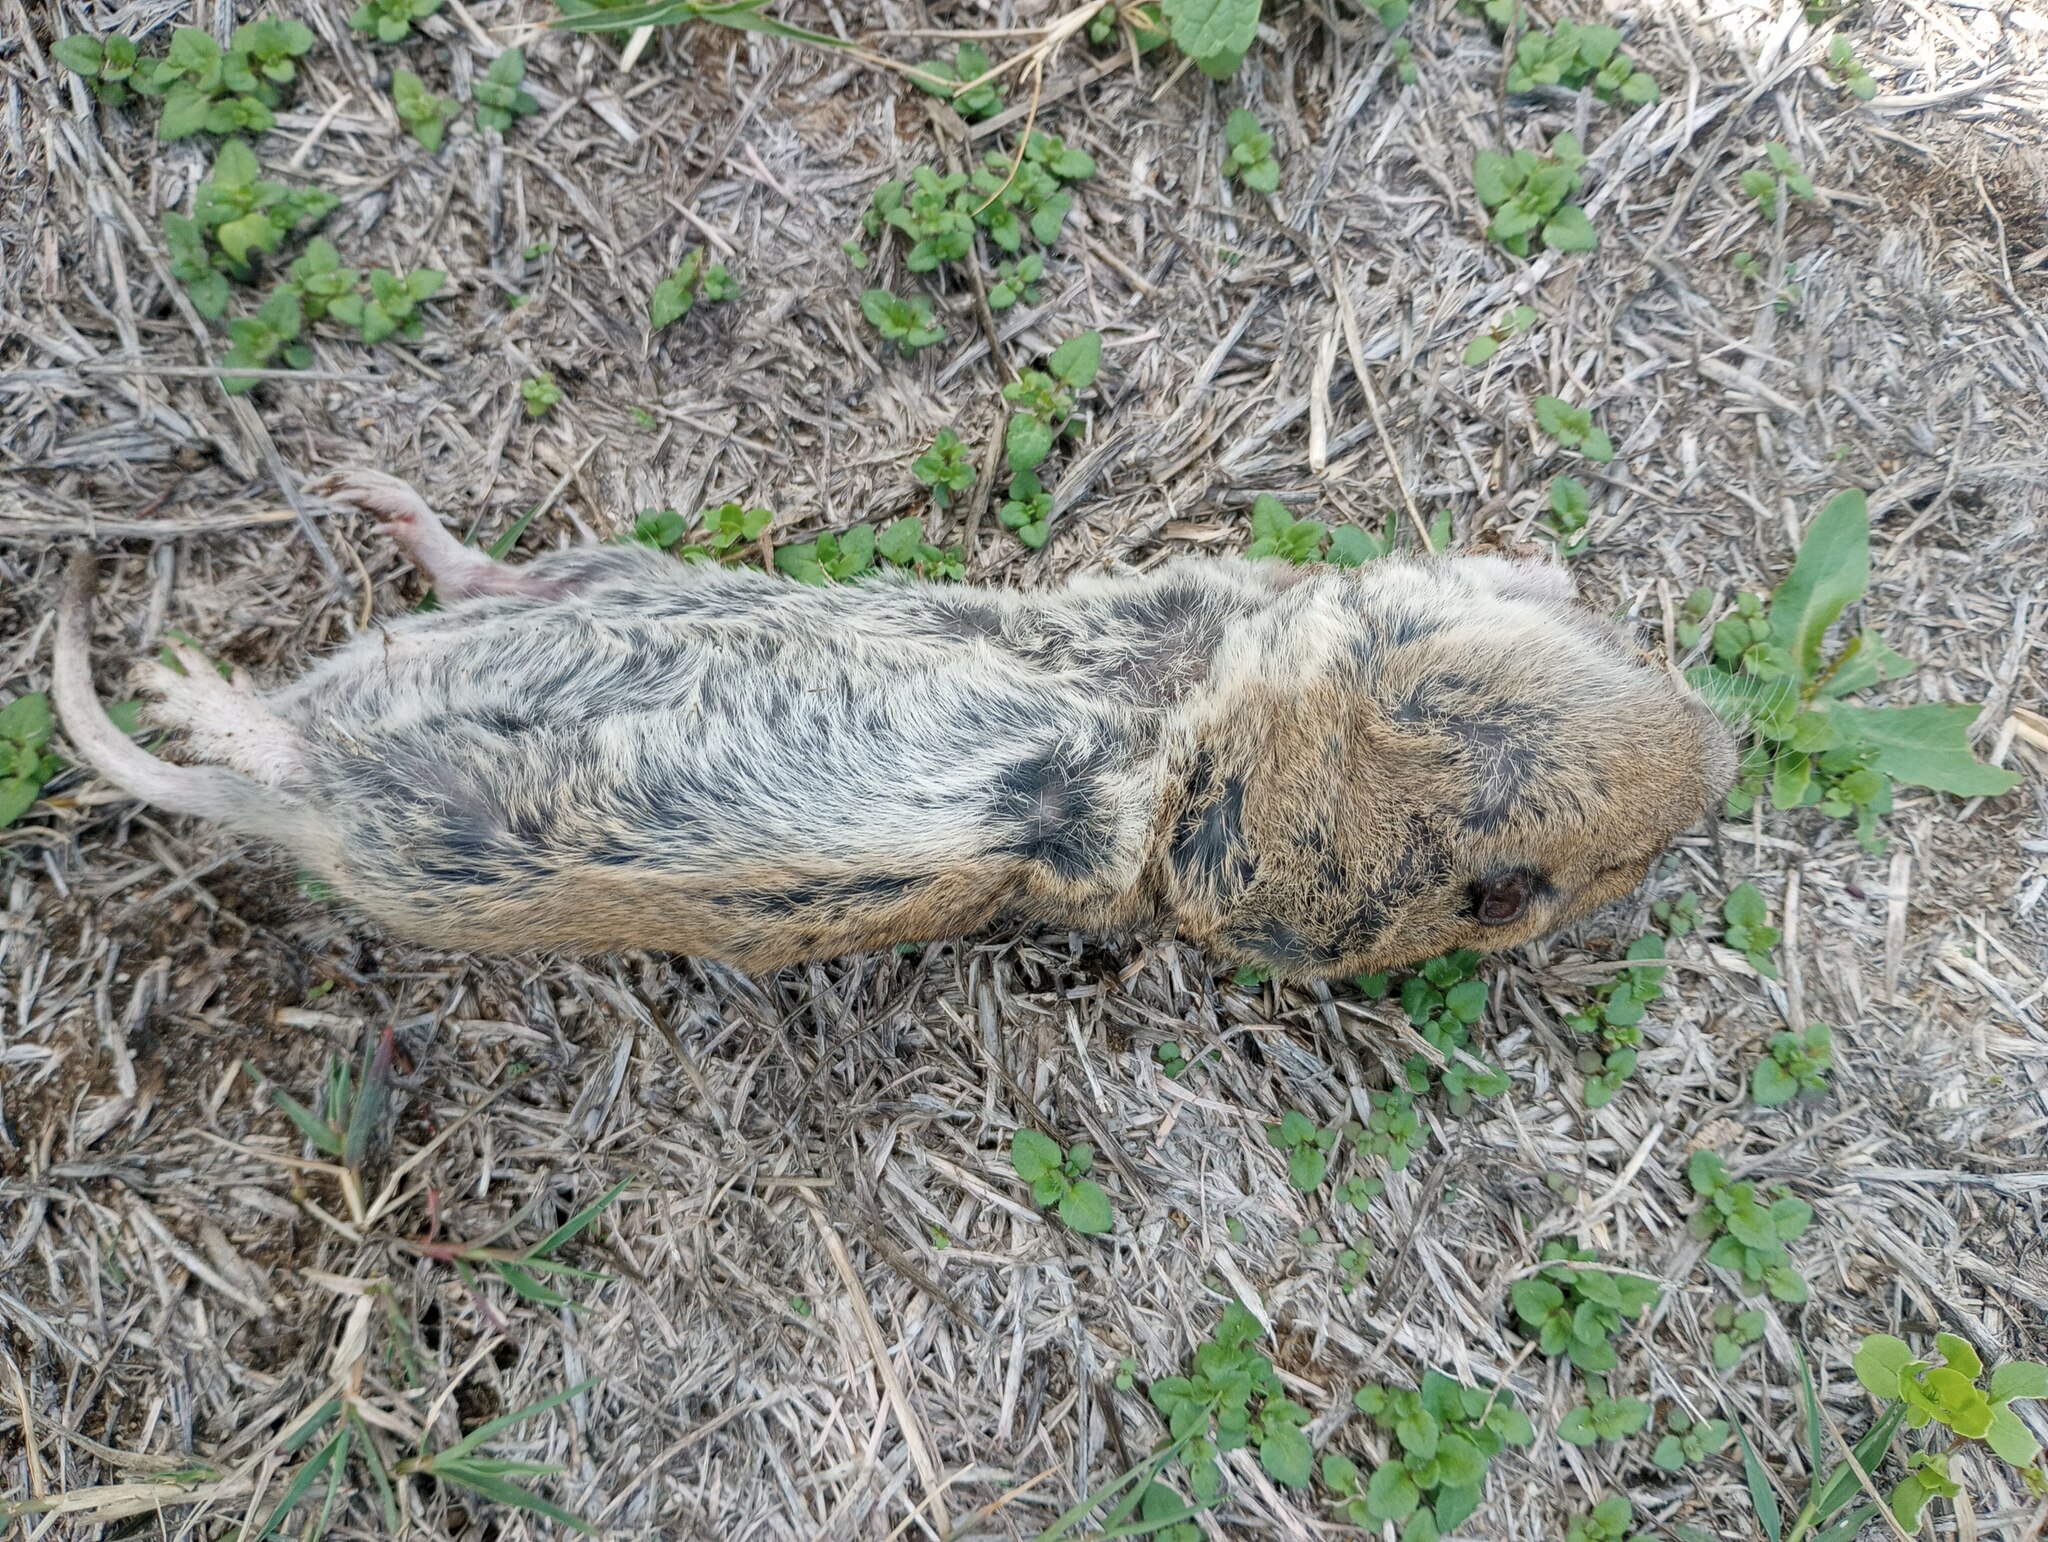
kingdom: Animalia
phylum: Chordata
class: Mammalia
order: Rodentia
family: Geomyidae
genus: Thomomys
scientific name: Thomomys bottae
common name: Botta's pocket gopher
